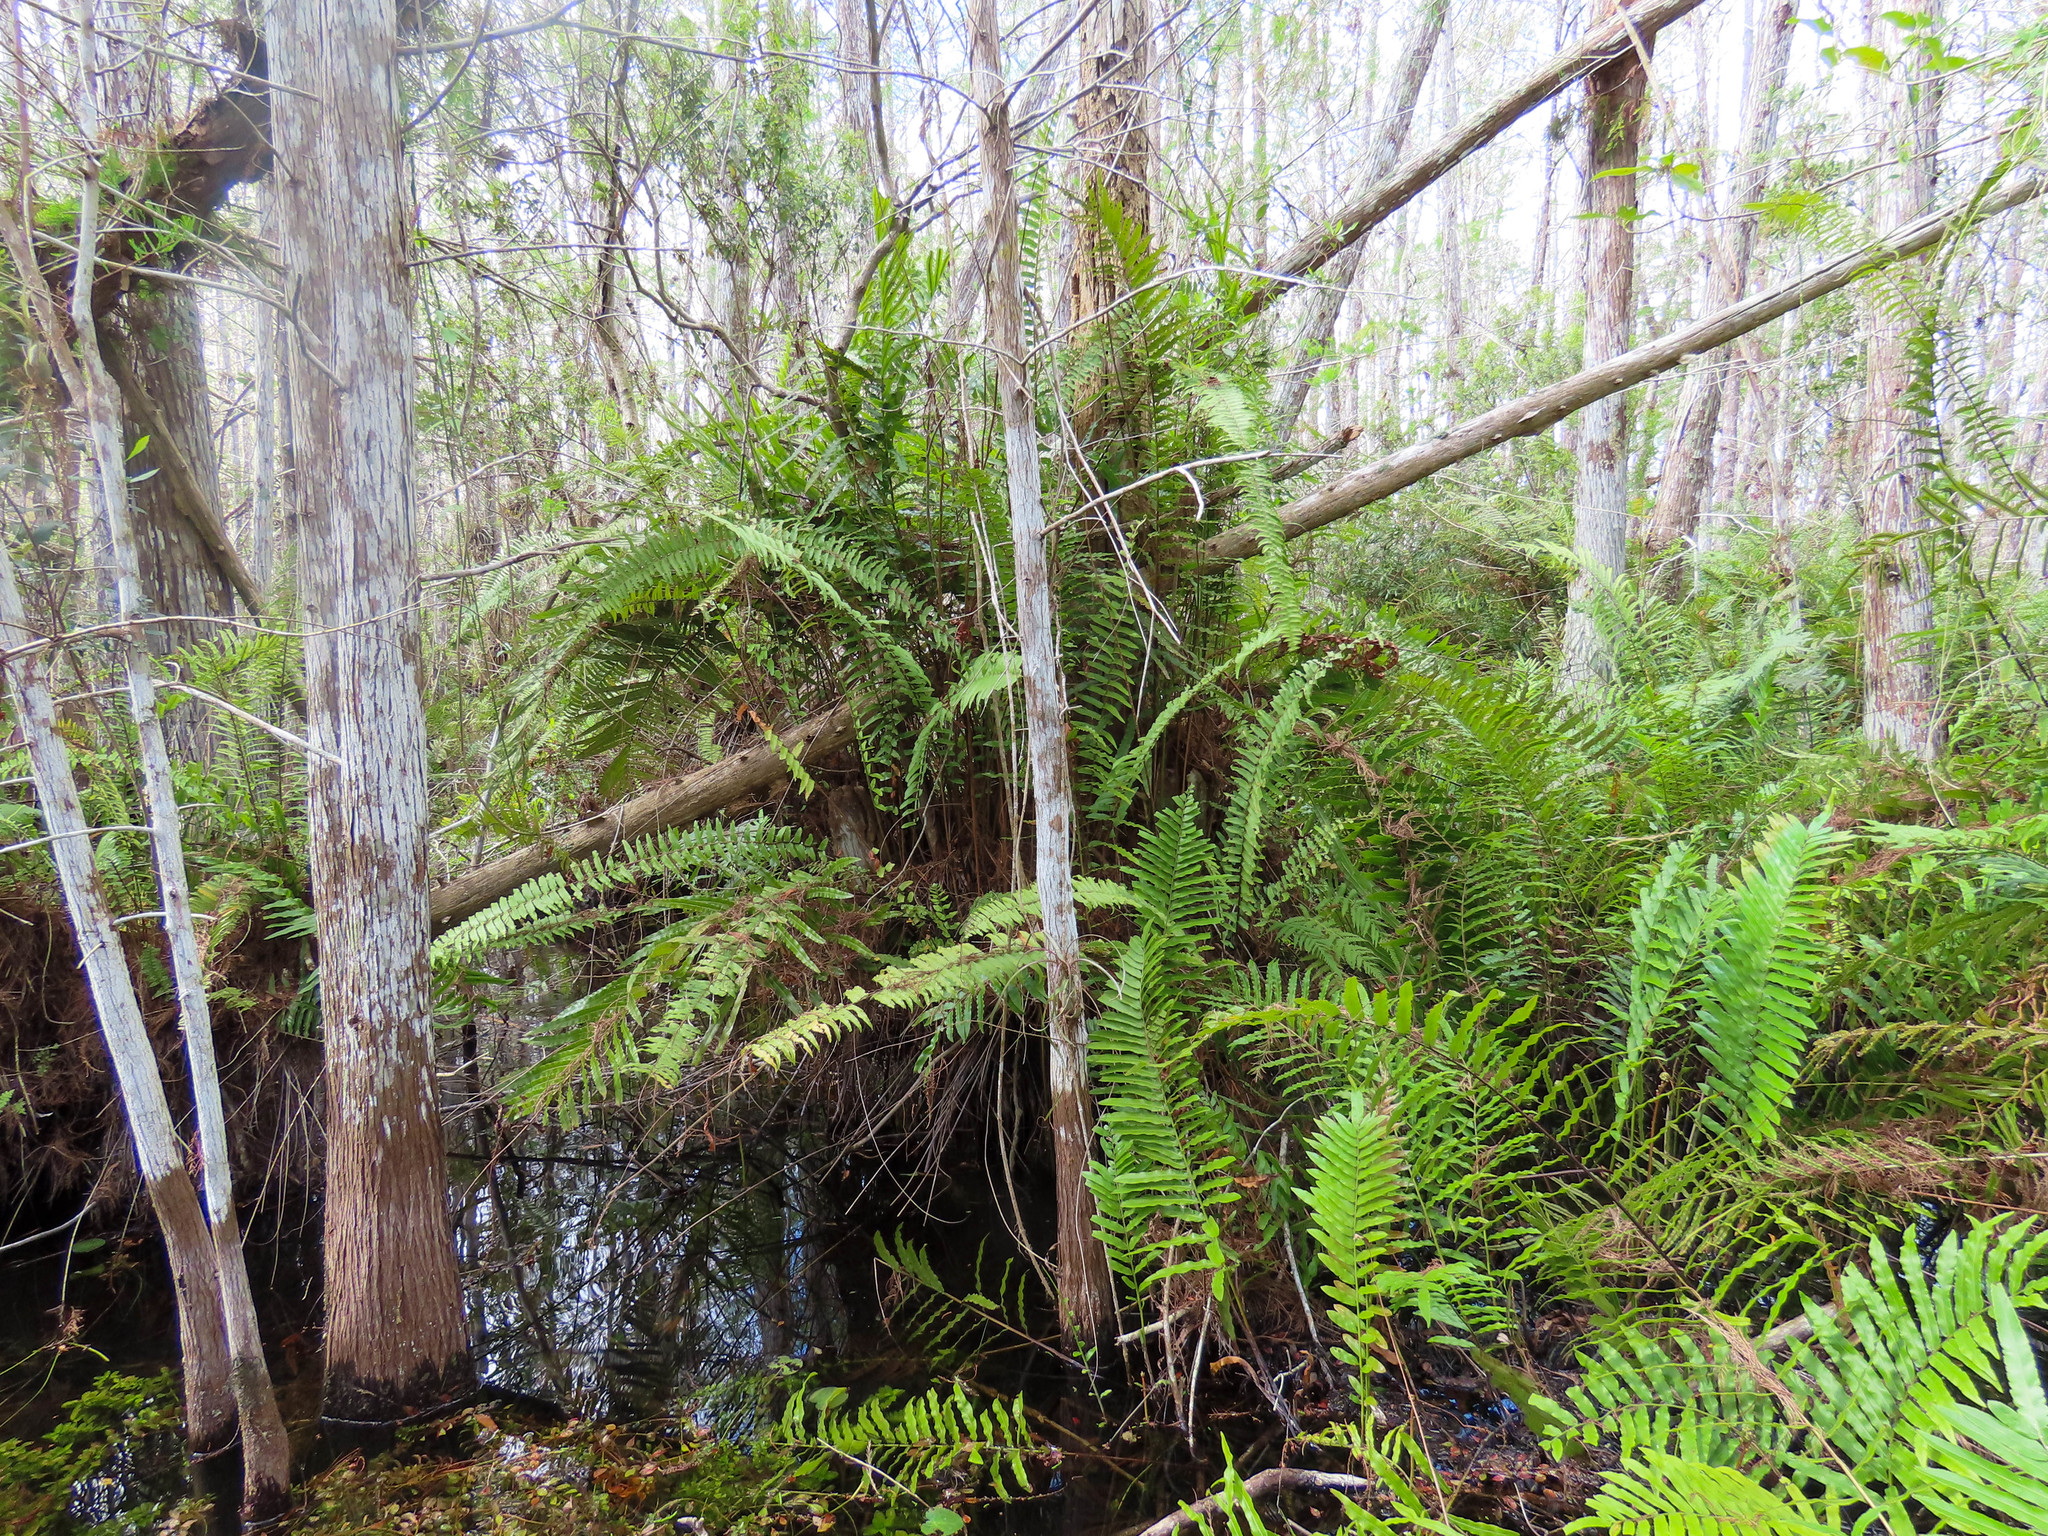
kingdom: Plantae
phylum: Tracheophyta
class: Polypodiopsida
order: Polypodiales
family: Blechnaceae
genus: Telmatoblechnum
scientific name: Telmatoblechnum serrulatum
